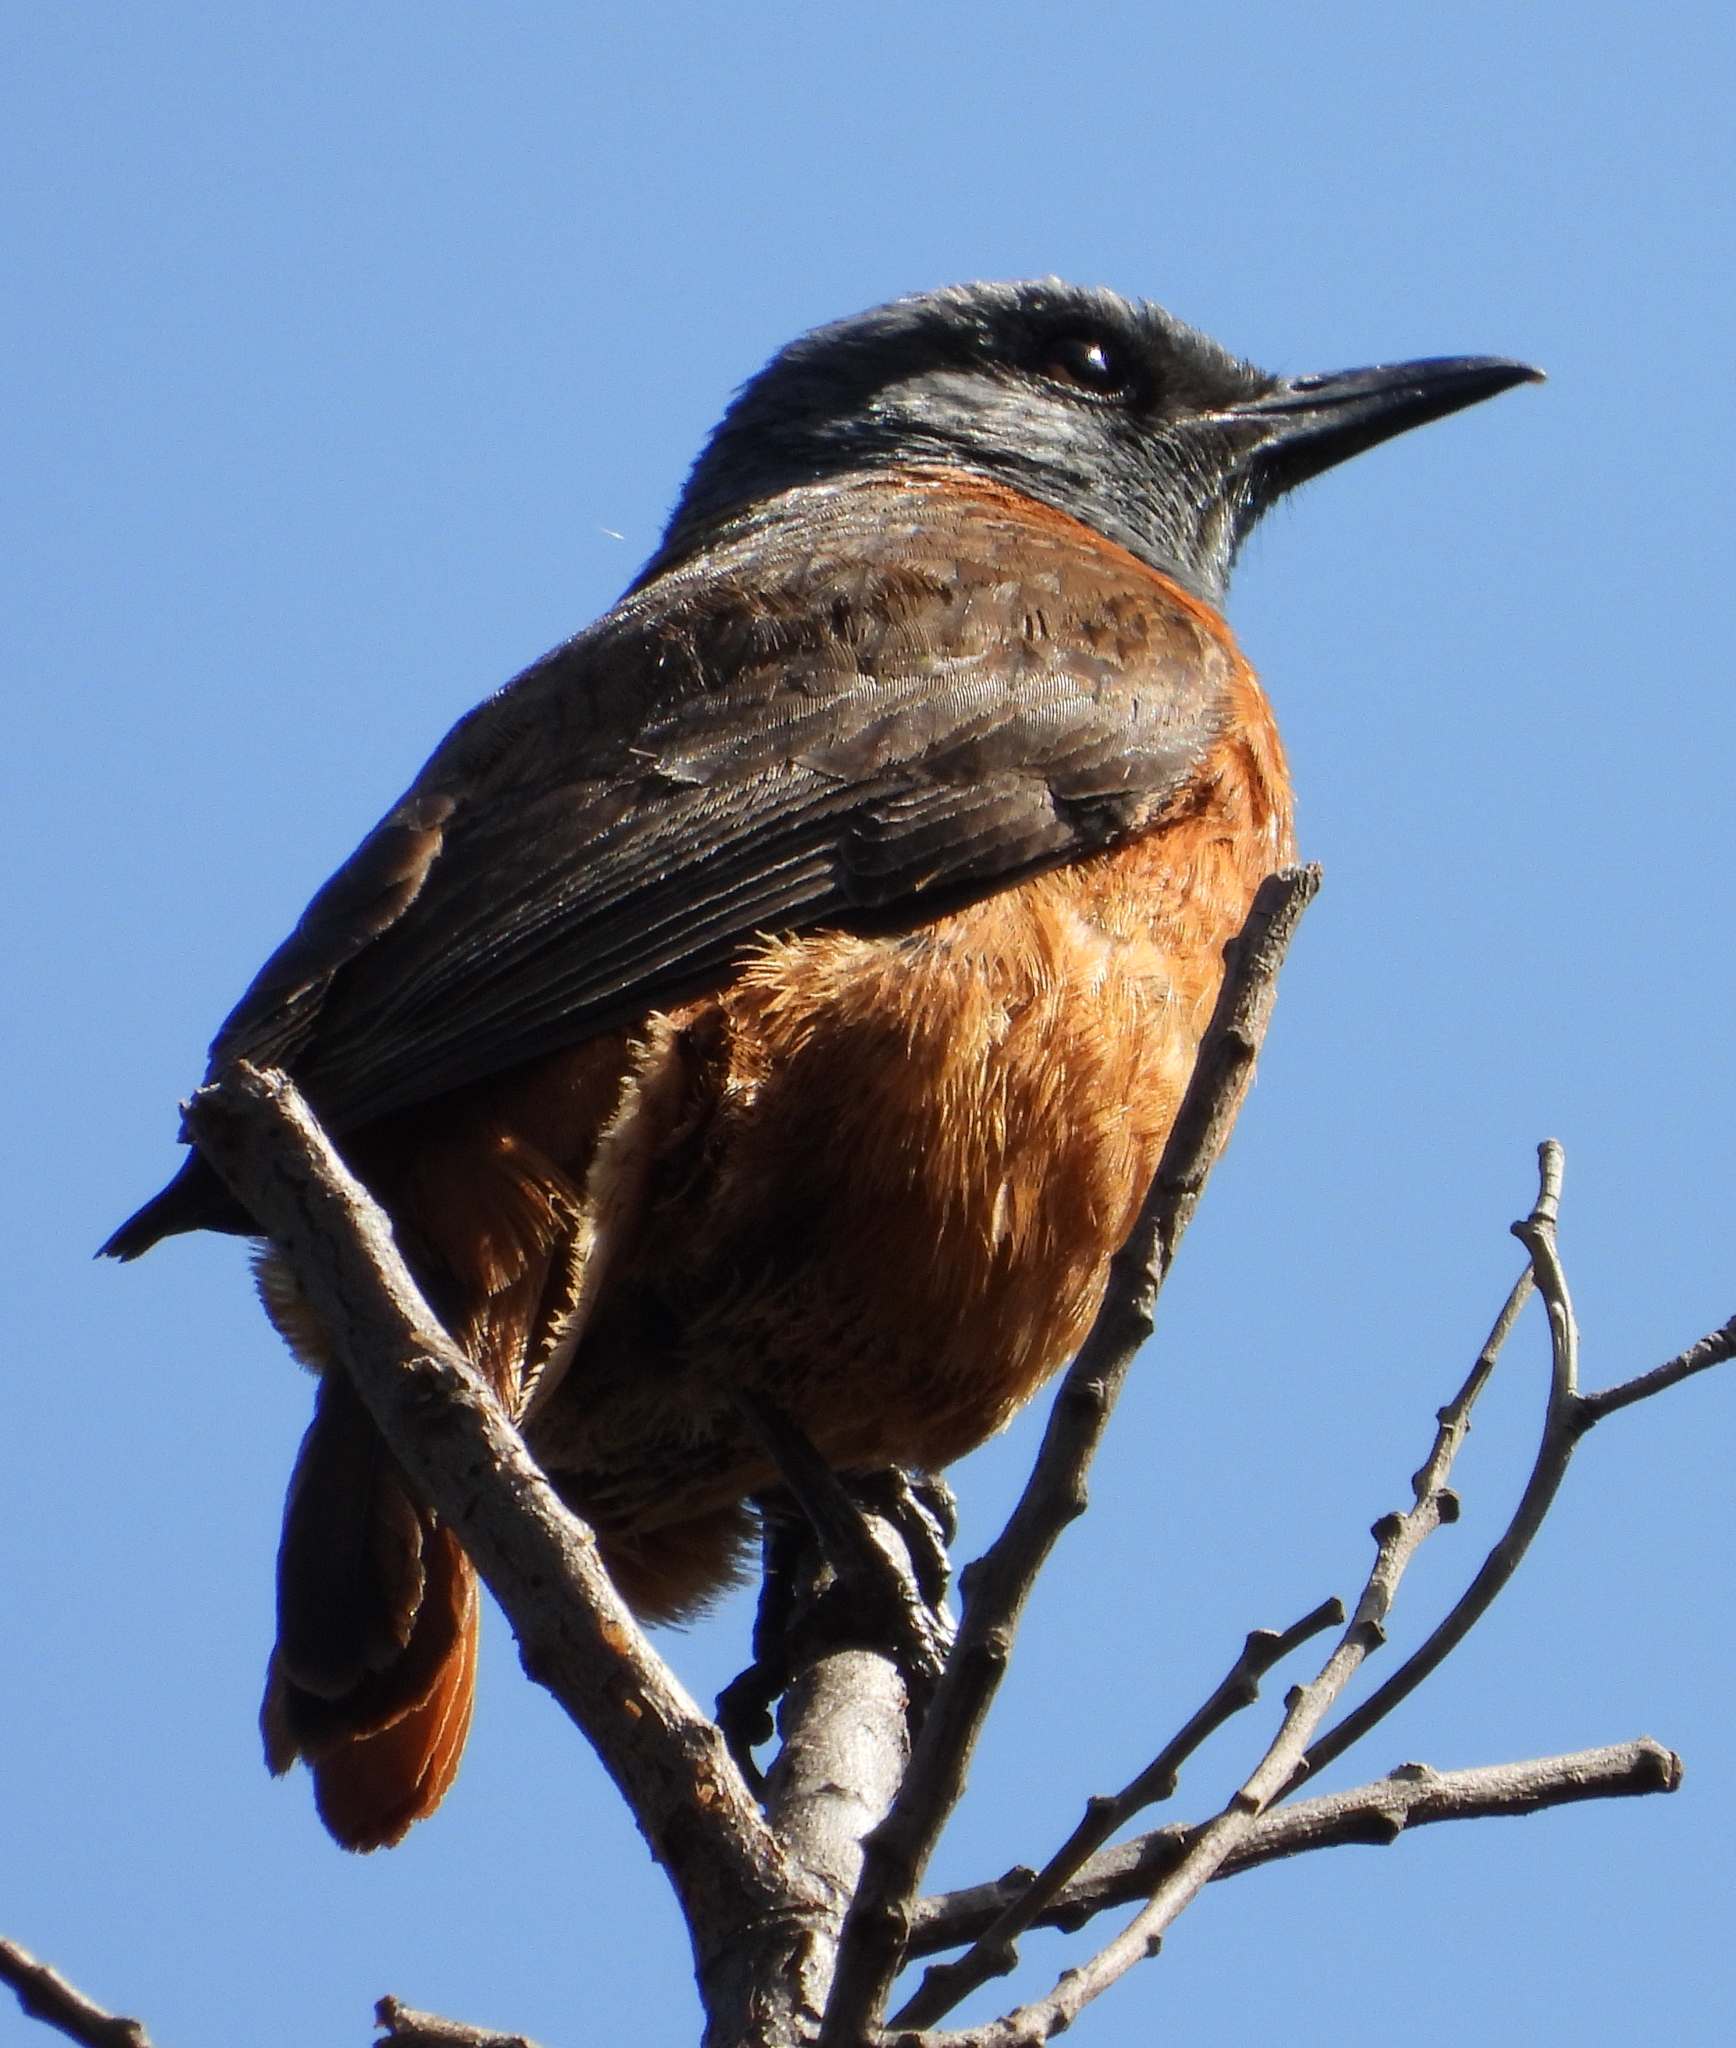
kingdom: Animalia
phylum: Chordata
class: Aves
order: Passeriformes
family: Muscicapidae
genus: Monticola
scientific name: Monticola rupestris
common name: Cape rock thrush
